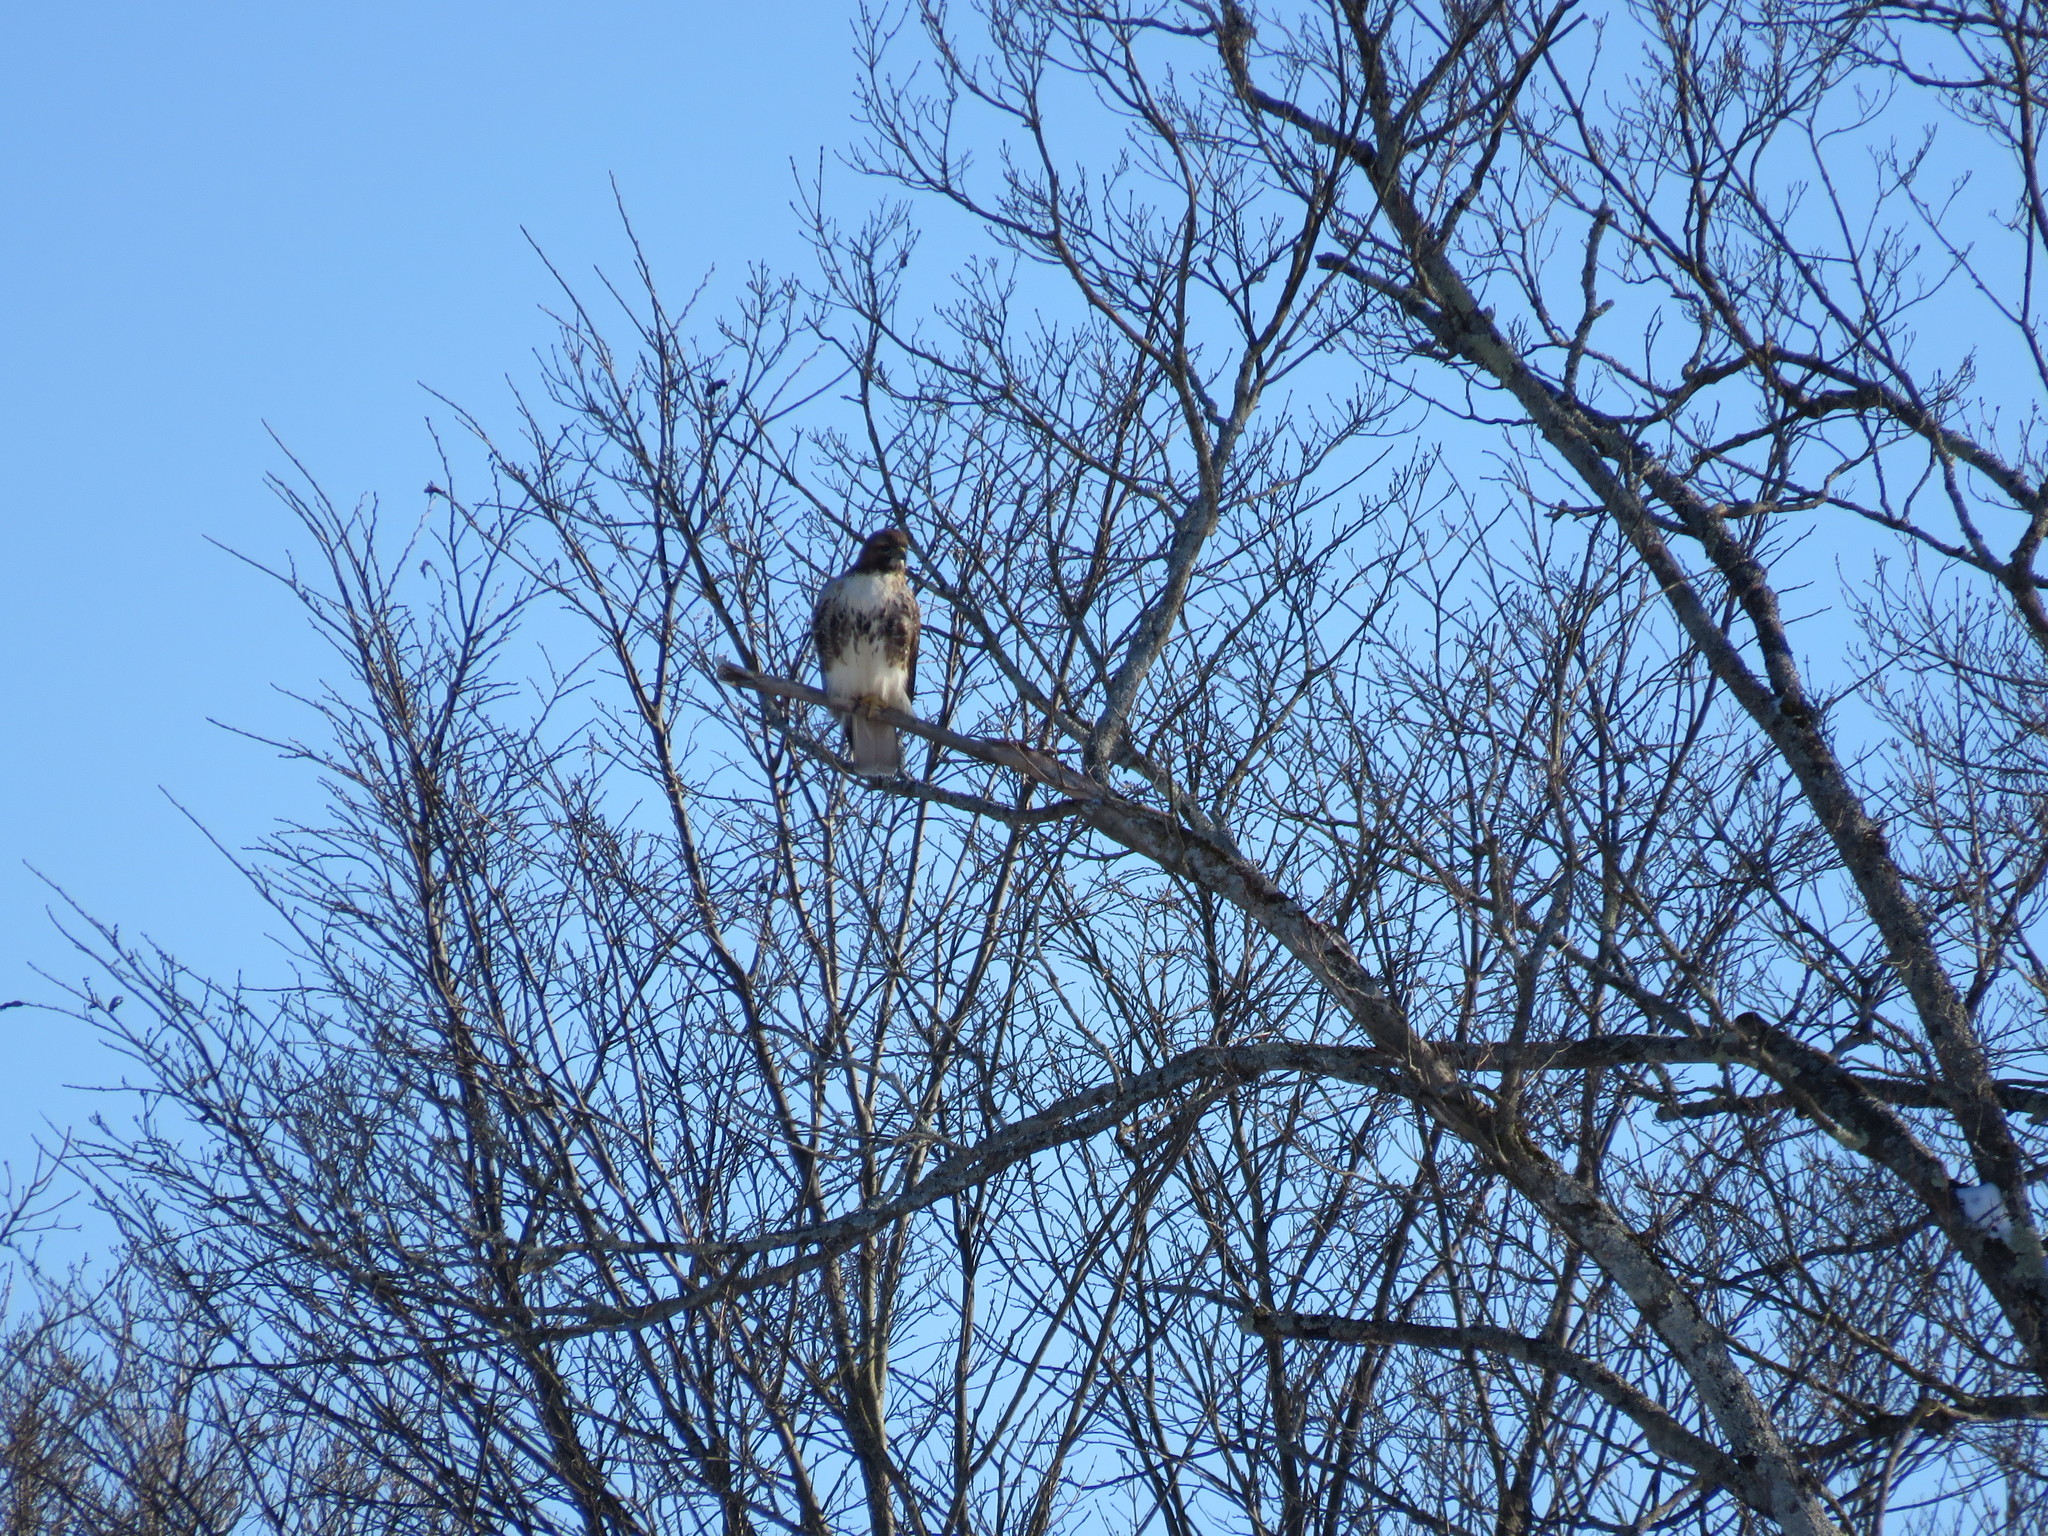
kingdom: Animalia
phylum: Chordata
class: Aves
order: Accipitriformes
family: Accipitridae
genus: Buteo
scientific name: Buteo jamaicensis
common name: Red-tailed hawk
